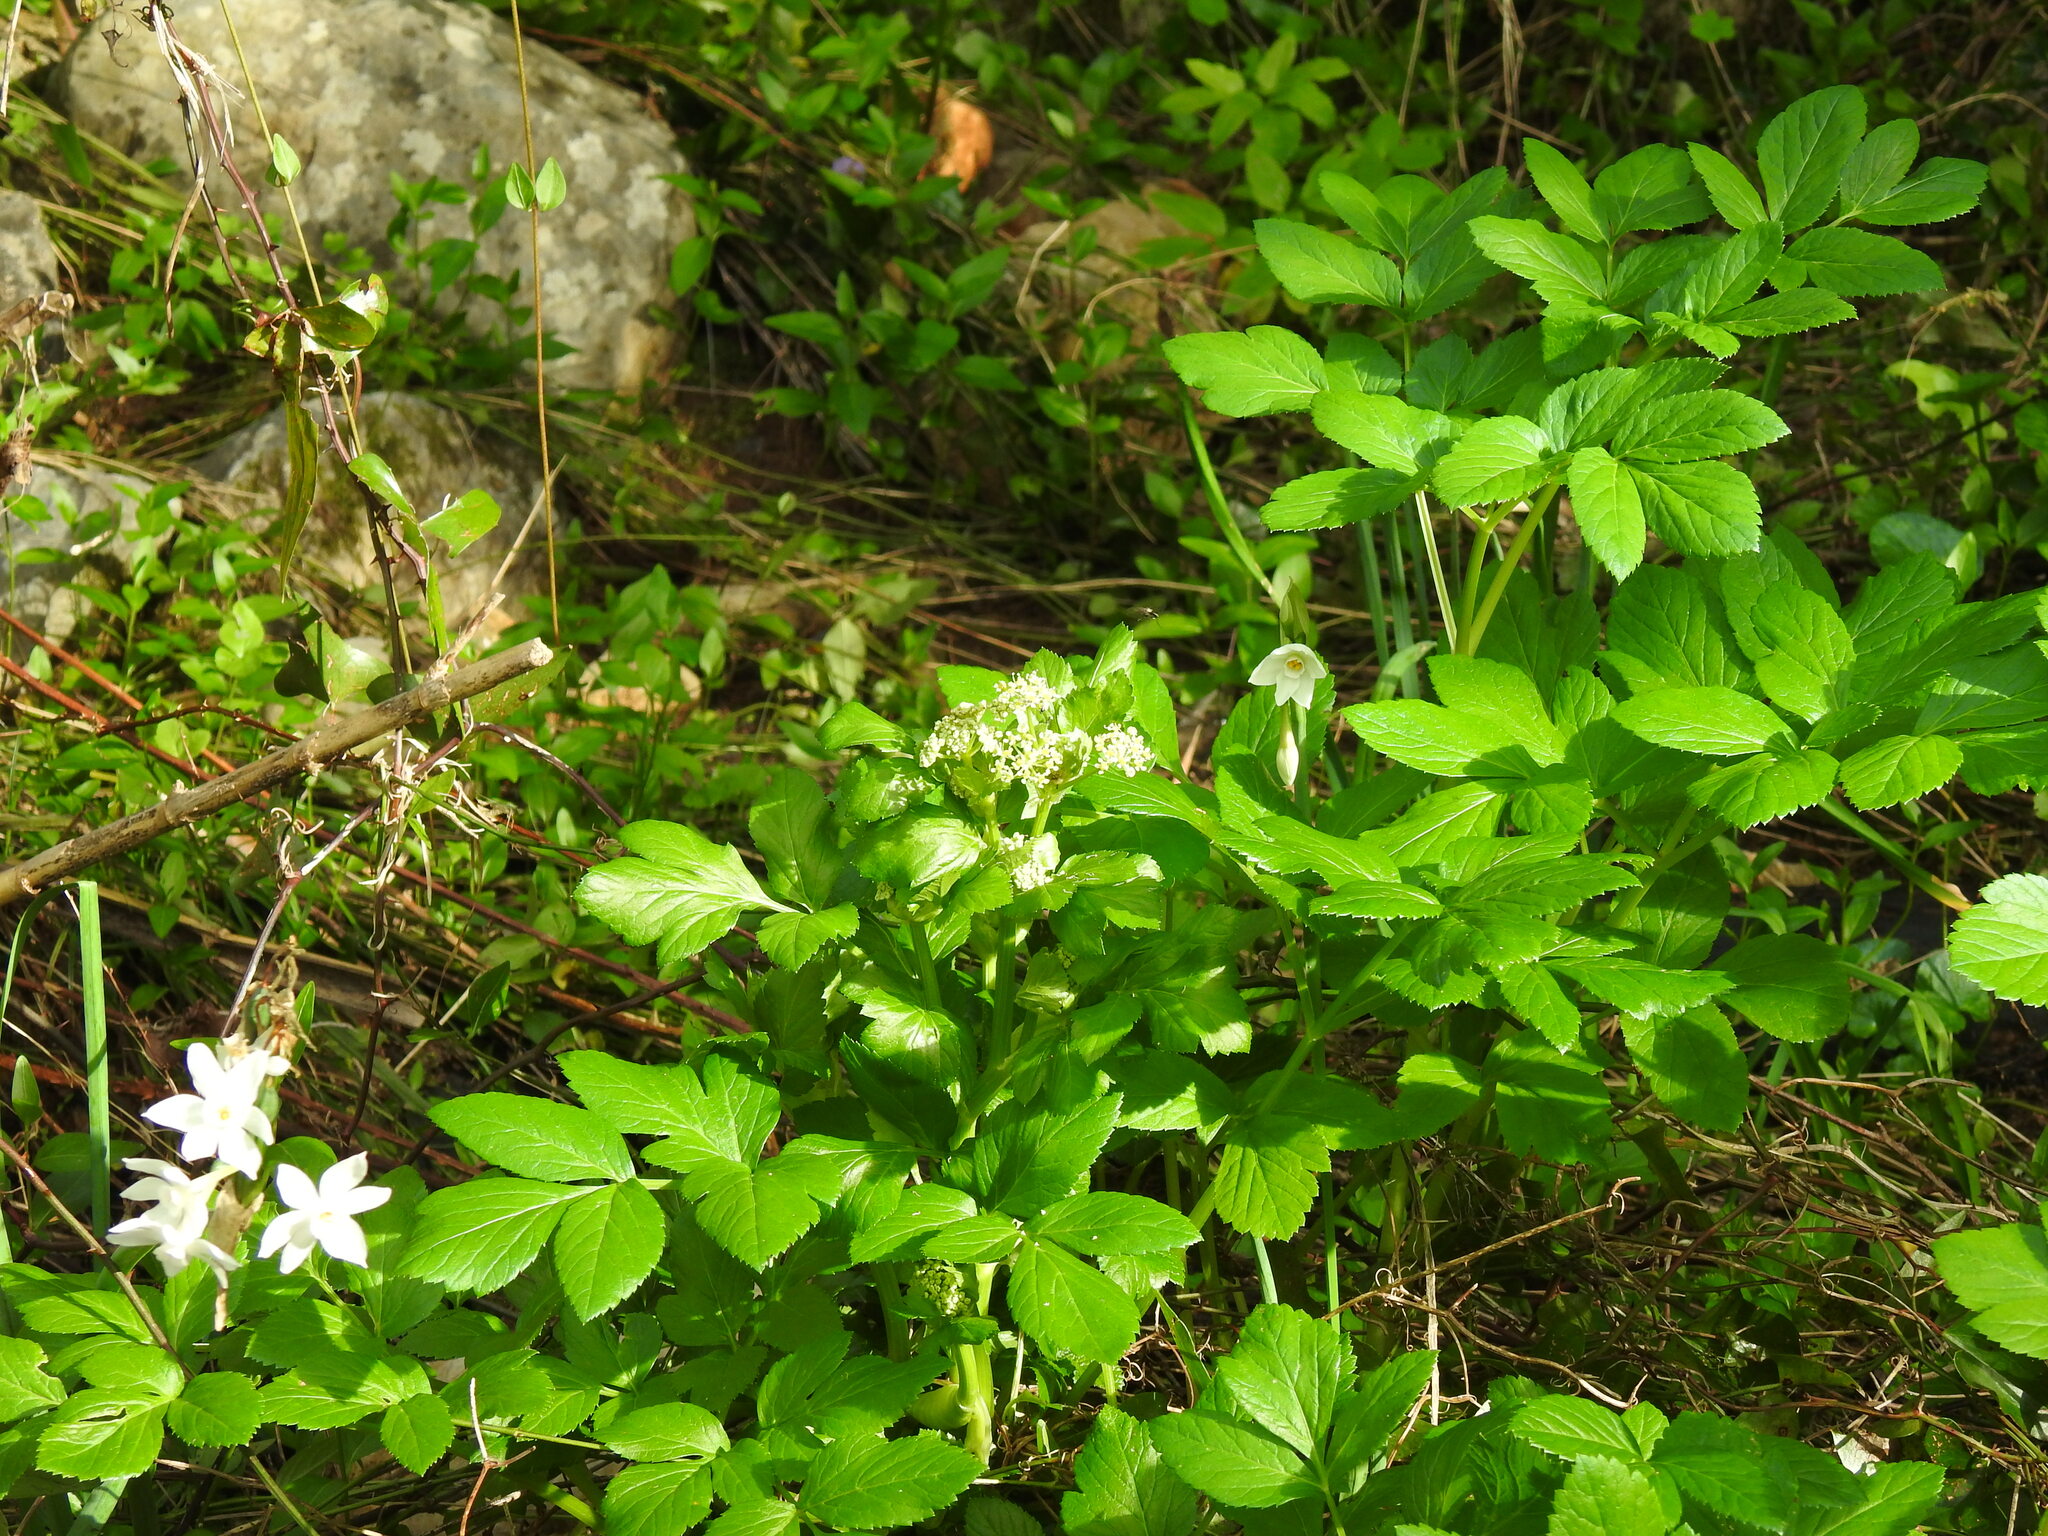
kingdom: Plantae
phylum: Tracheophyta
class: Magnoliopsida
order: Apiales
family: Apiaceae
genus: Smyrnium
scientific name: Smyrnium olusatrum
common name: Alexanders
